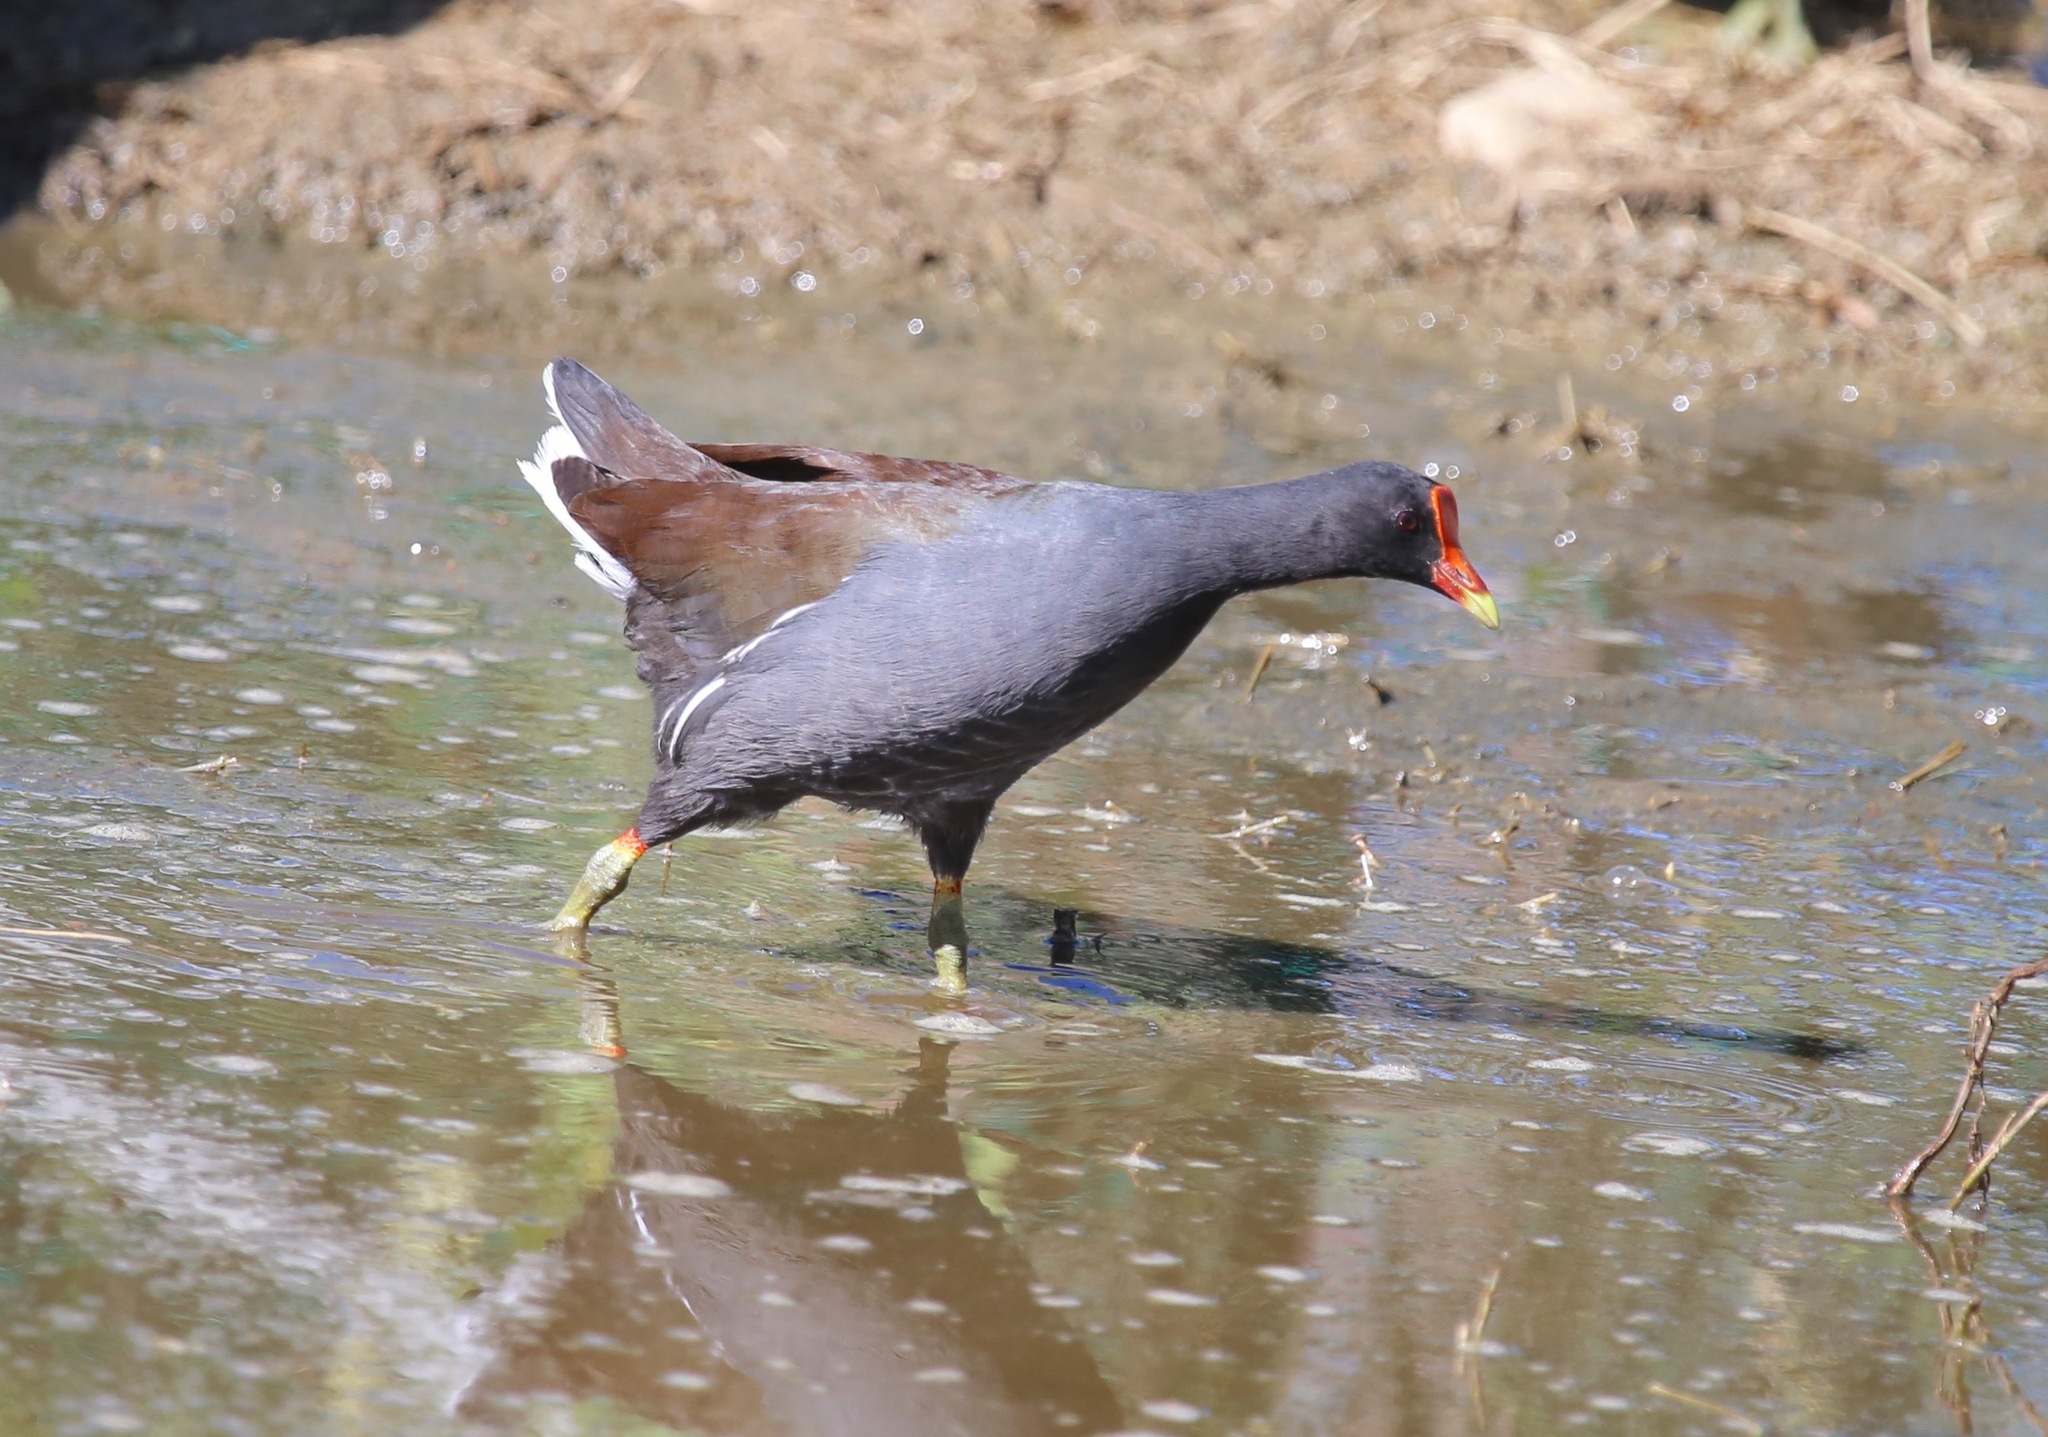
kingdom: Animalia
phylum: Chordata
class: Aves
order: Gruiformes
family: Rallidae
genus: Gallinula
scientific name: Gallinula chloropus
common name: Common moorhen
